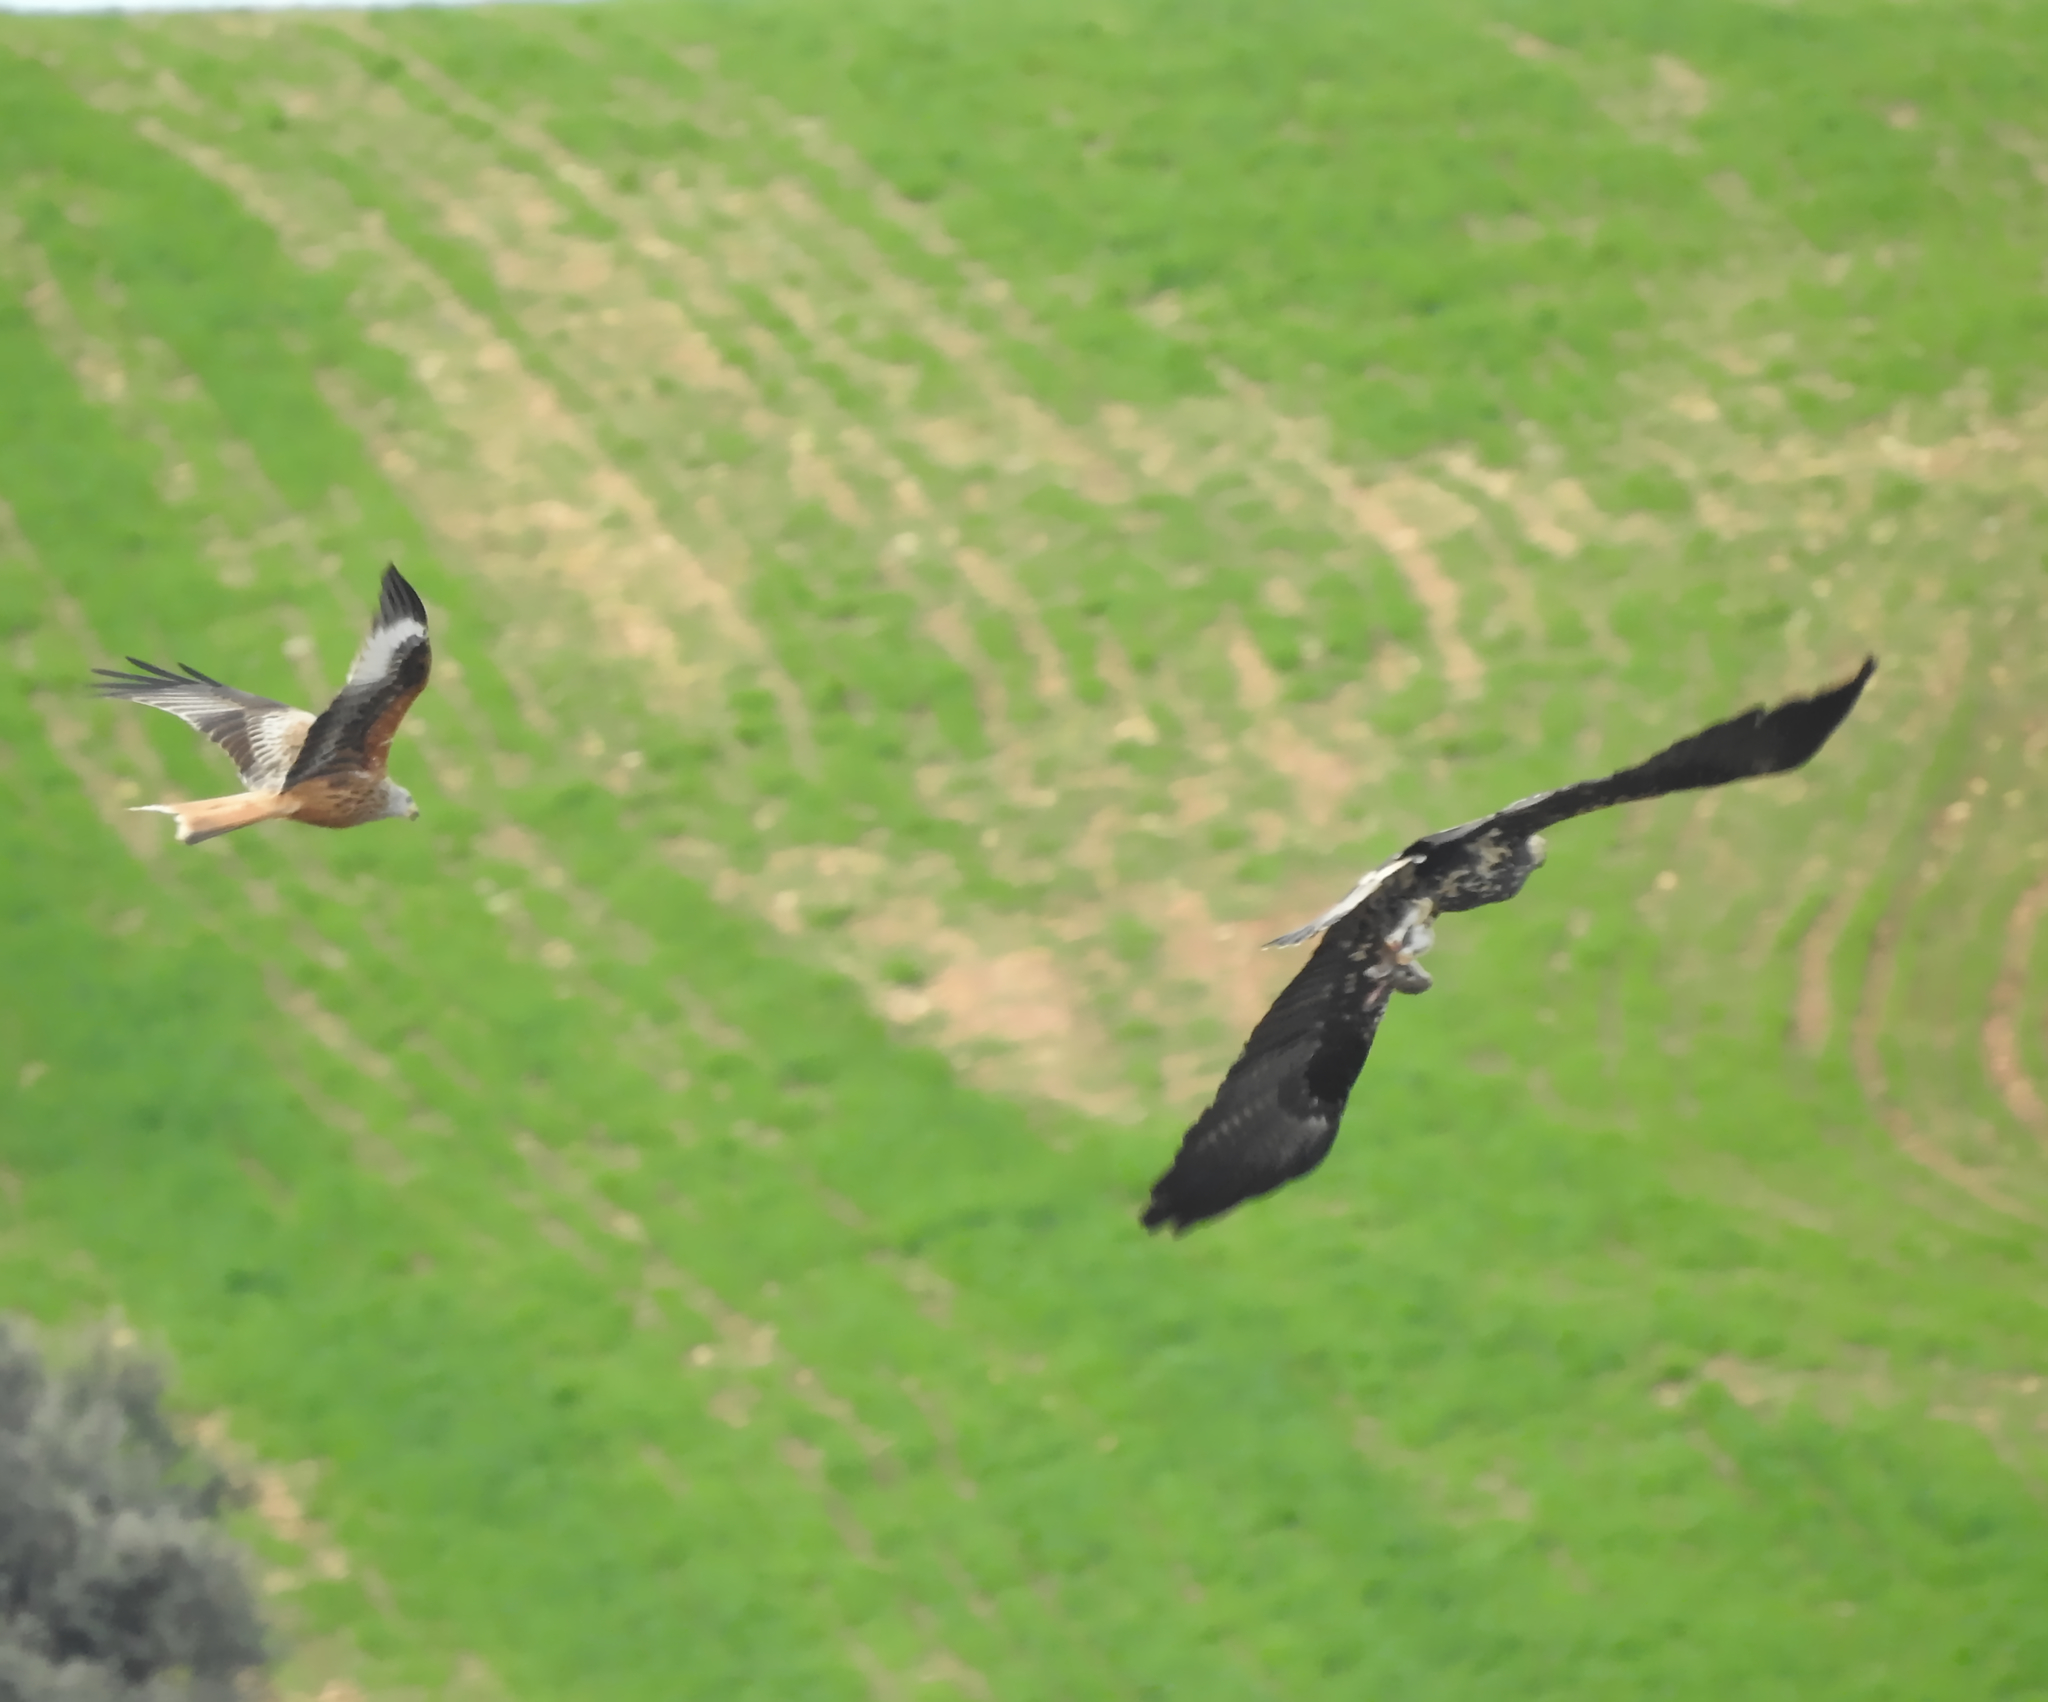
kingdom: Animalia
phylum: Chordata
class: Mammalia
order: Lagomorpha
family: Leporidae
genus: Oryctolagus
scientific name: Oryctolagus cuniculus
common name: European rabbit
